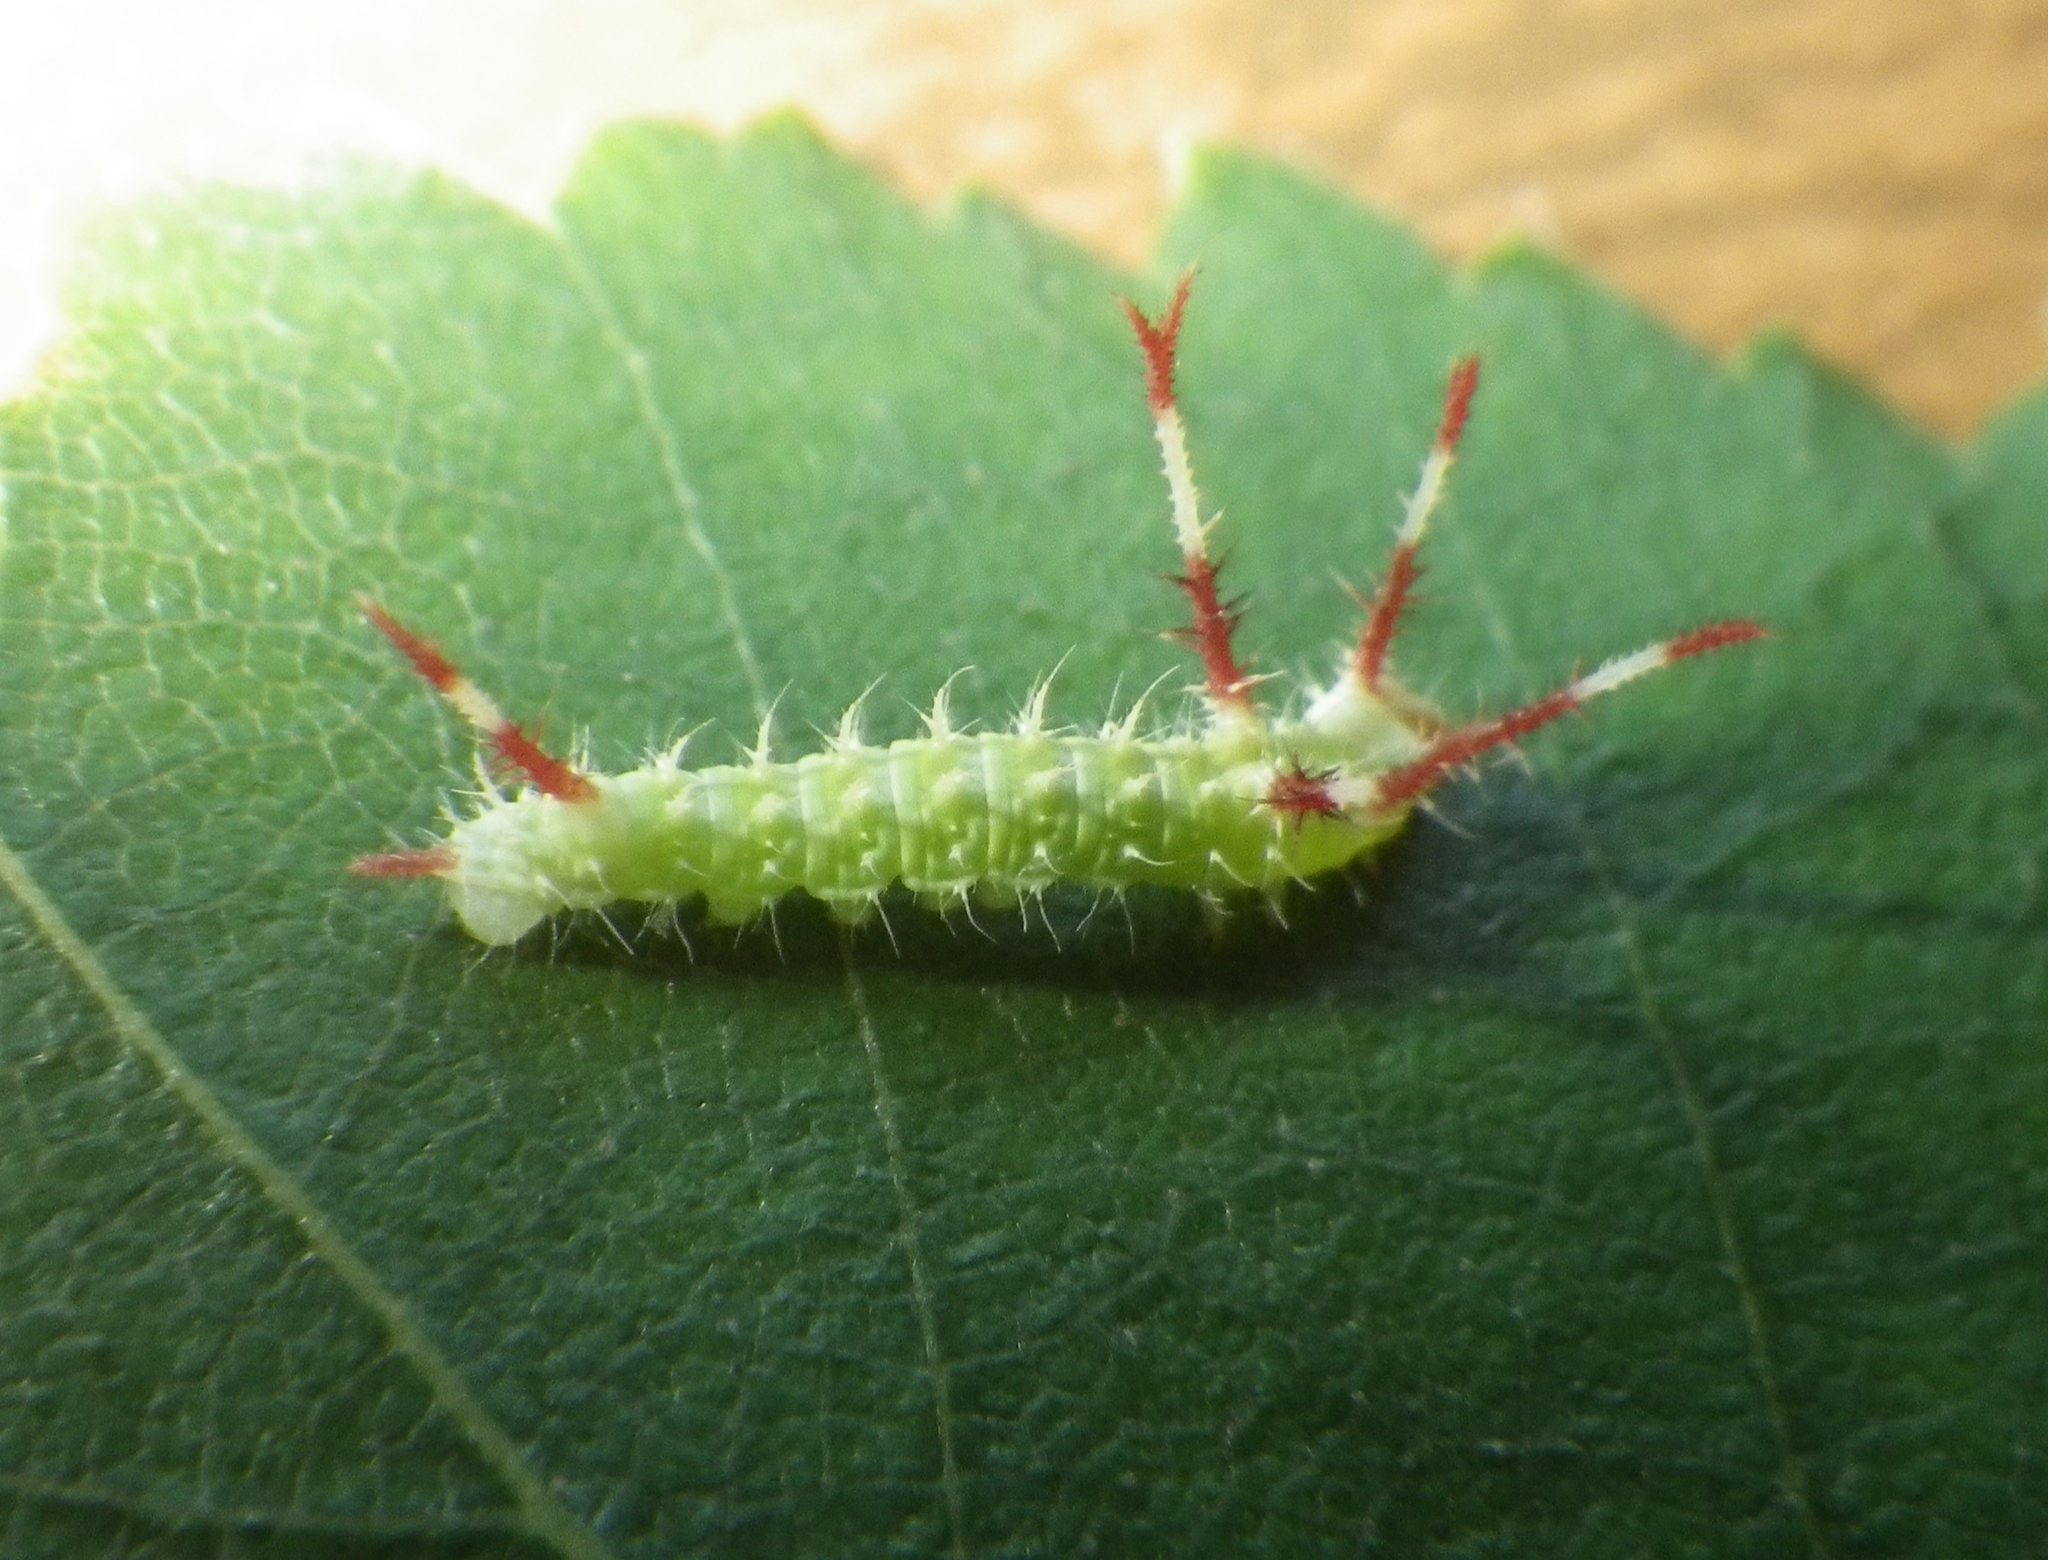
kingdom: Animalia
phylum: Arthropoda
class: Insecta
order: Lepidoptera
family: Saturniidae
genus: Aglia
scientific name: Aglia tau
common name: Tau emperor
